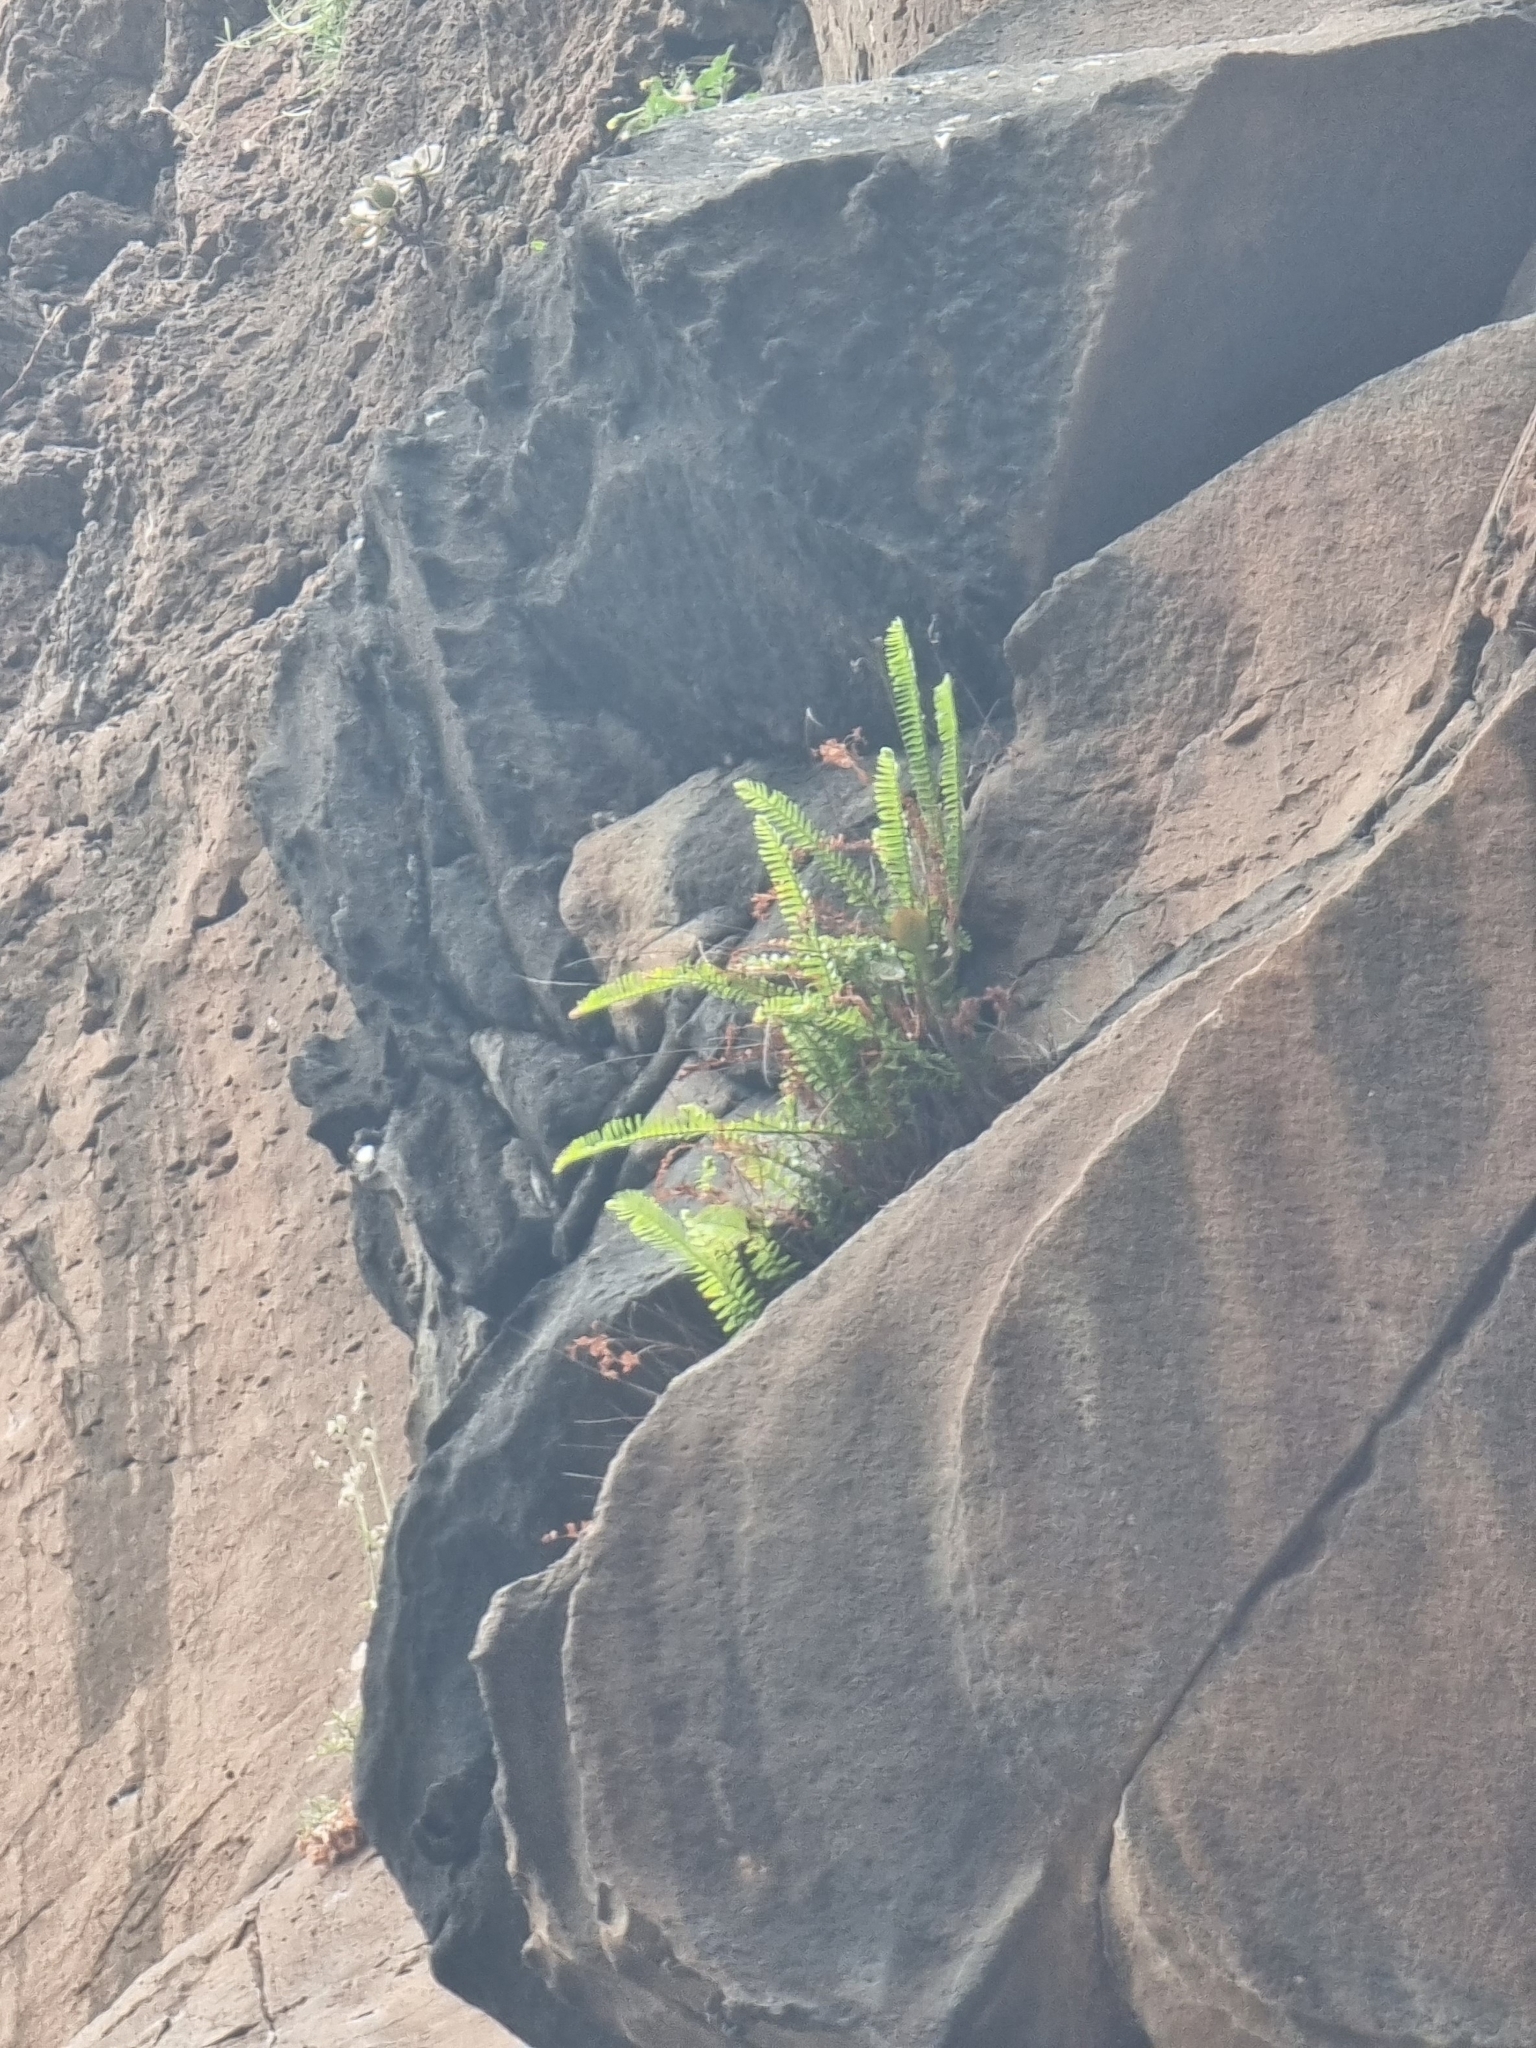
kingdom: Plantae
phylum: Tracheophyta
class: Polypodiopsida
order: Polypodiales
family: Aspleniaceae
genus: Asplenium
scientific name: Asplenium monanthes
